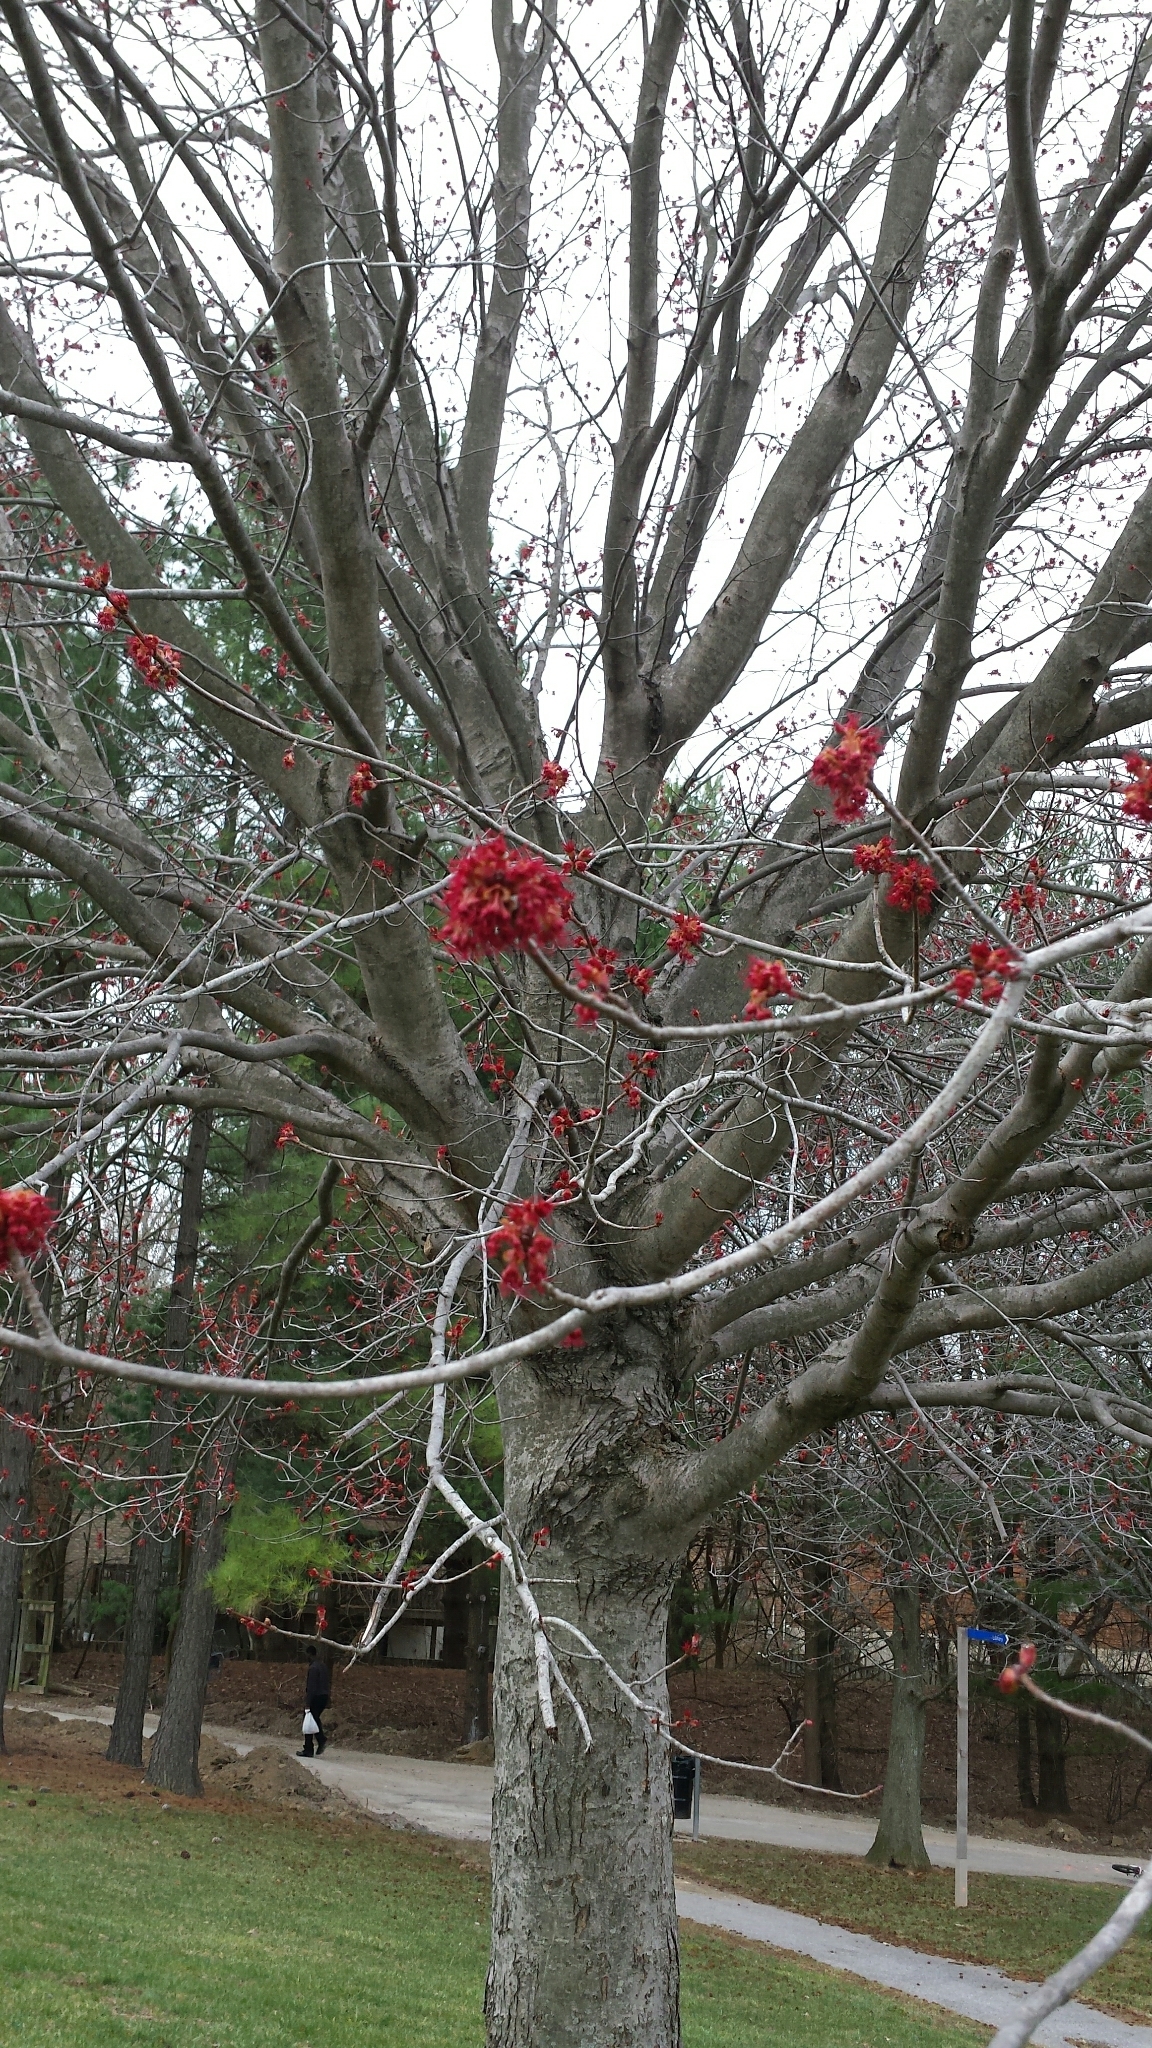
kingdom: Plantae
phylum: Tracheophyta
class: Magnoliopsida
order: Sapindales
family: Sapindaceae
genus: Acer
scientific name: Acer rubrum
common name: Red maple
